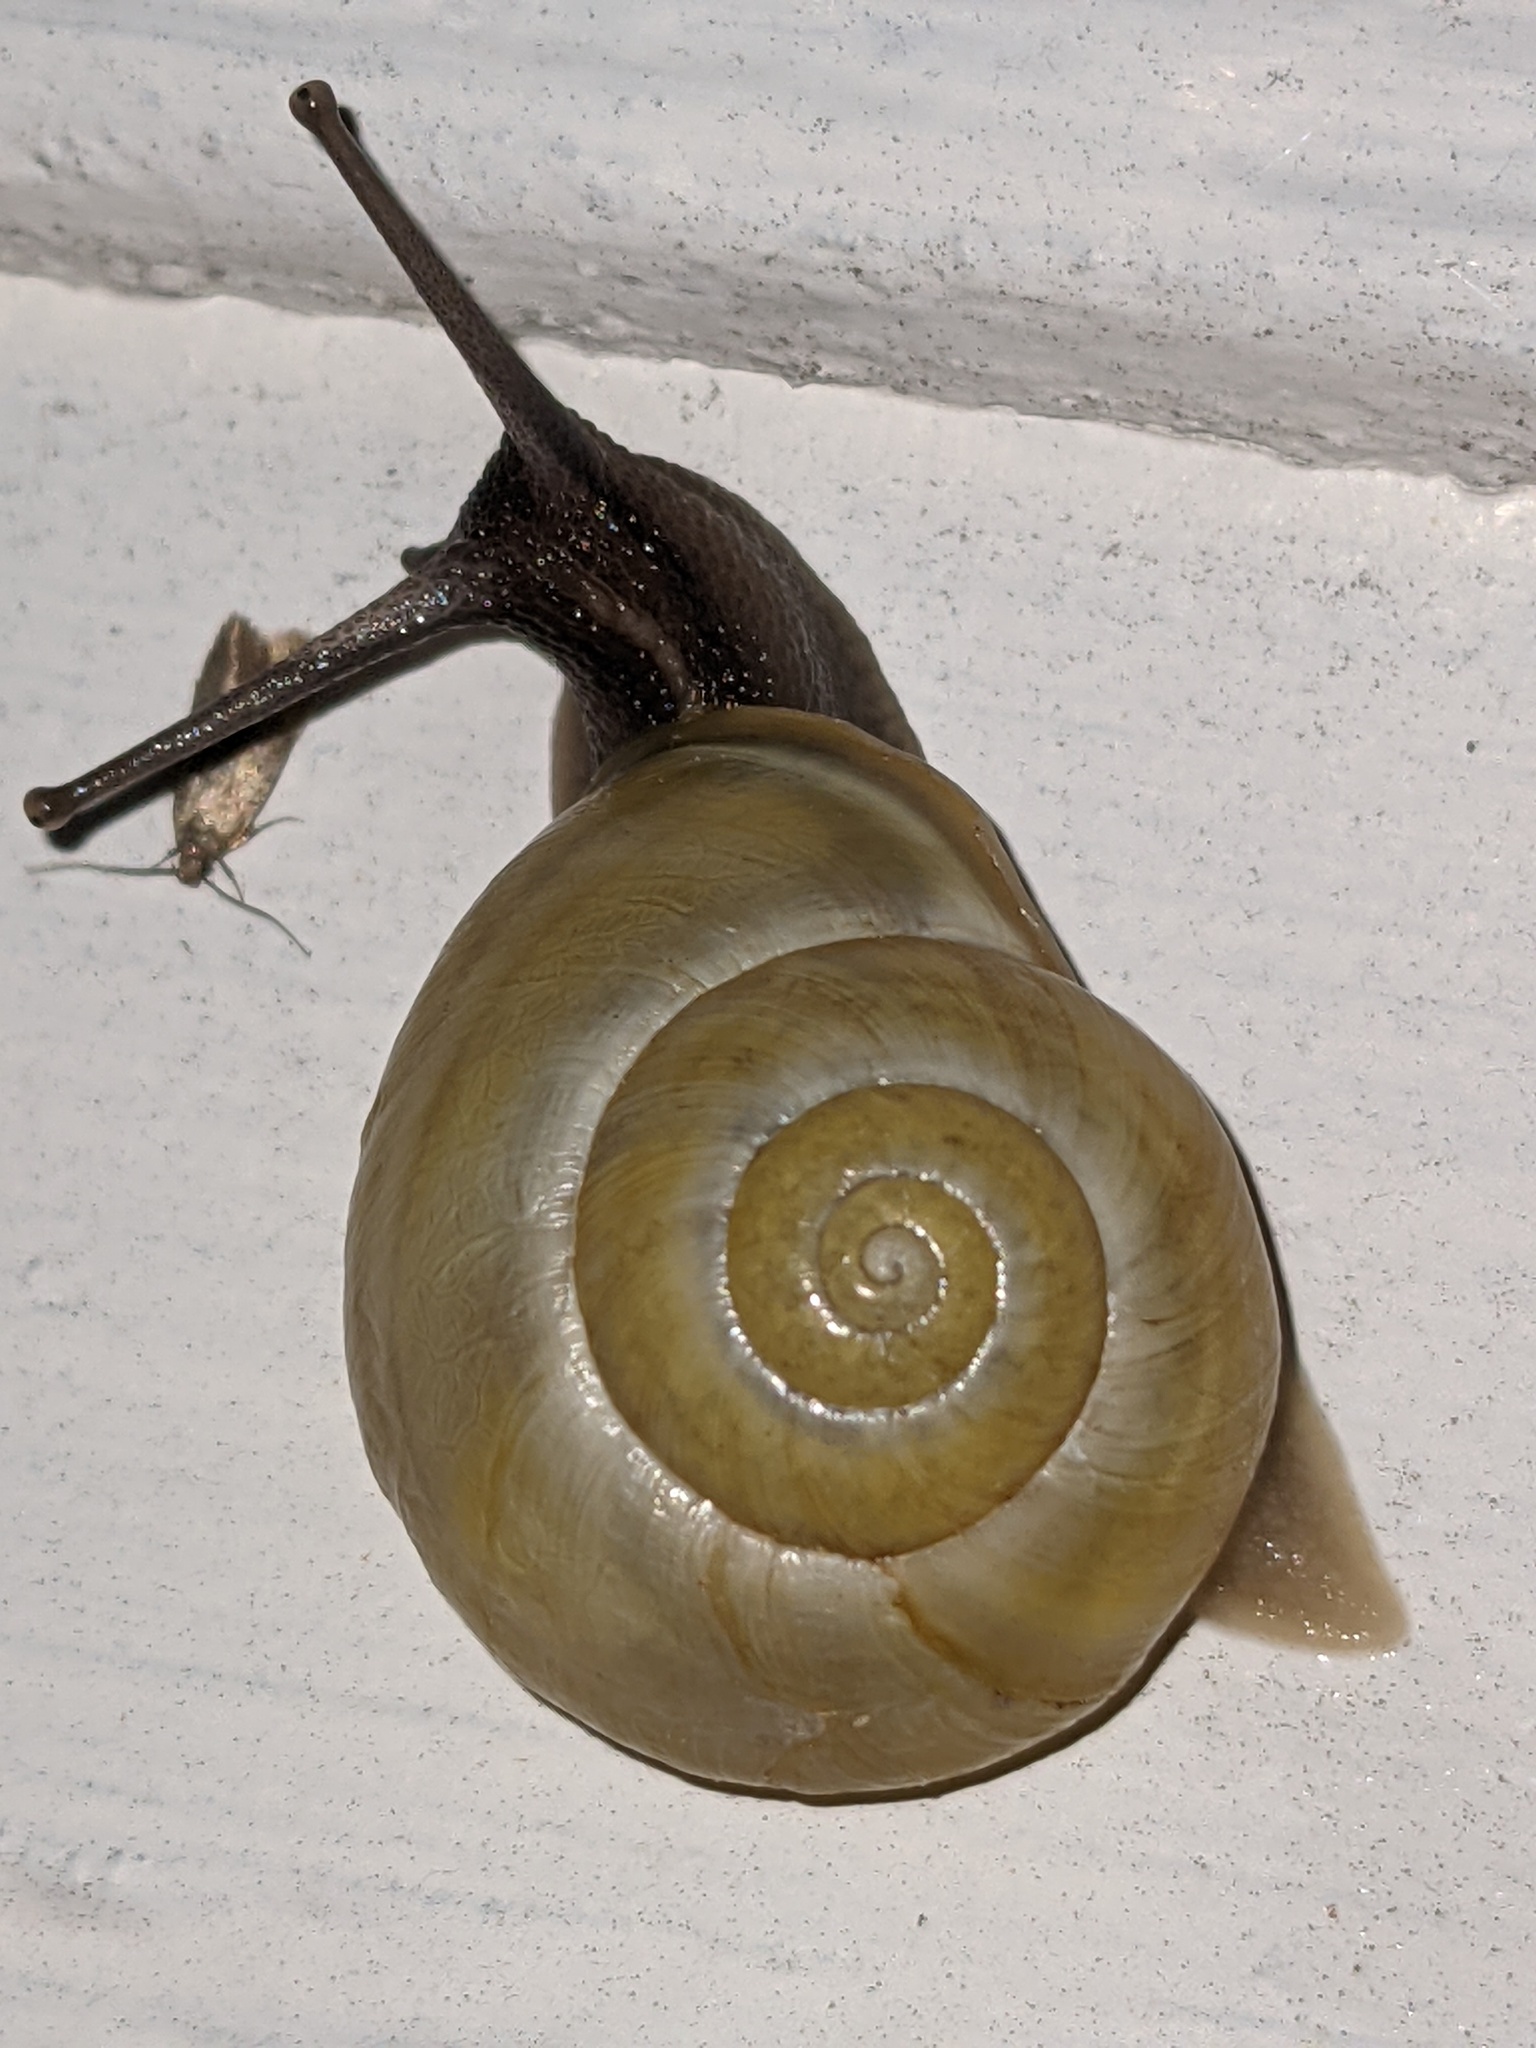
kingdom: Animalia
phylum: Mollusca
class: Gastropoda
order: Stylommatophora
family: Helicidae
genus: Cepaea
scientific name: Cepaea hortensis
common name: White-lip gardensnail
